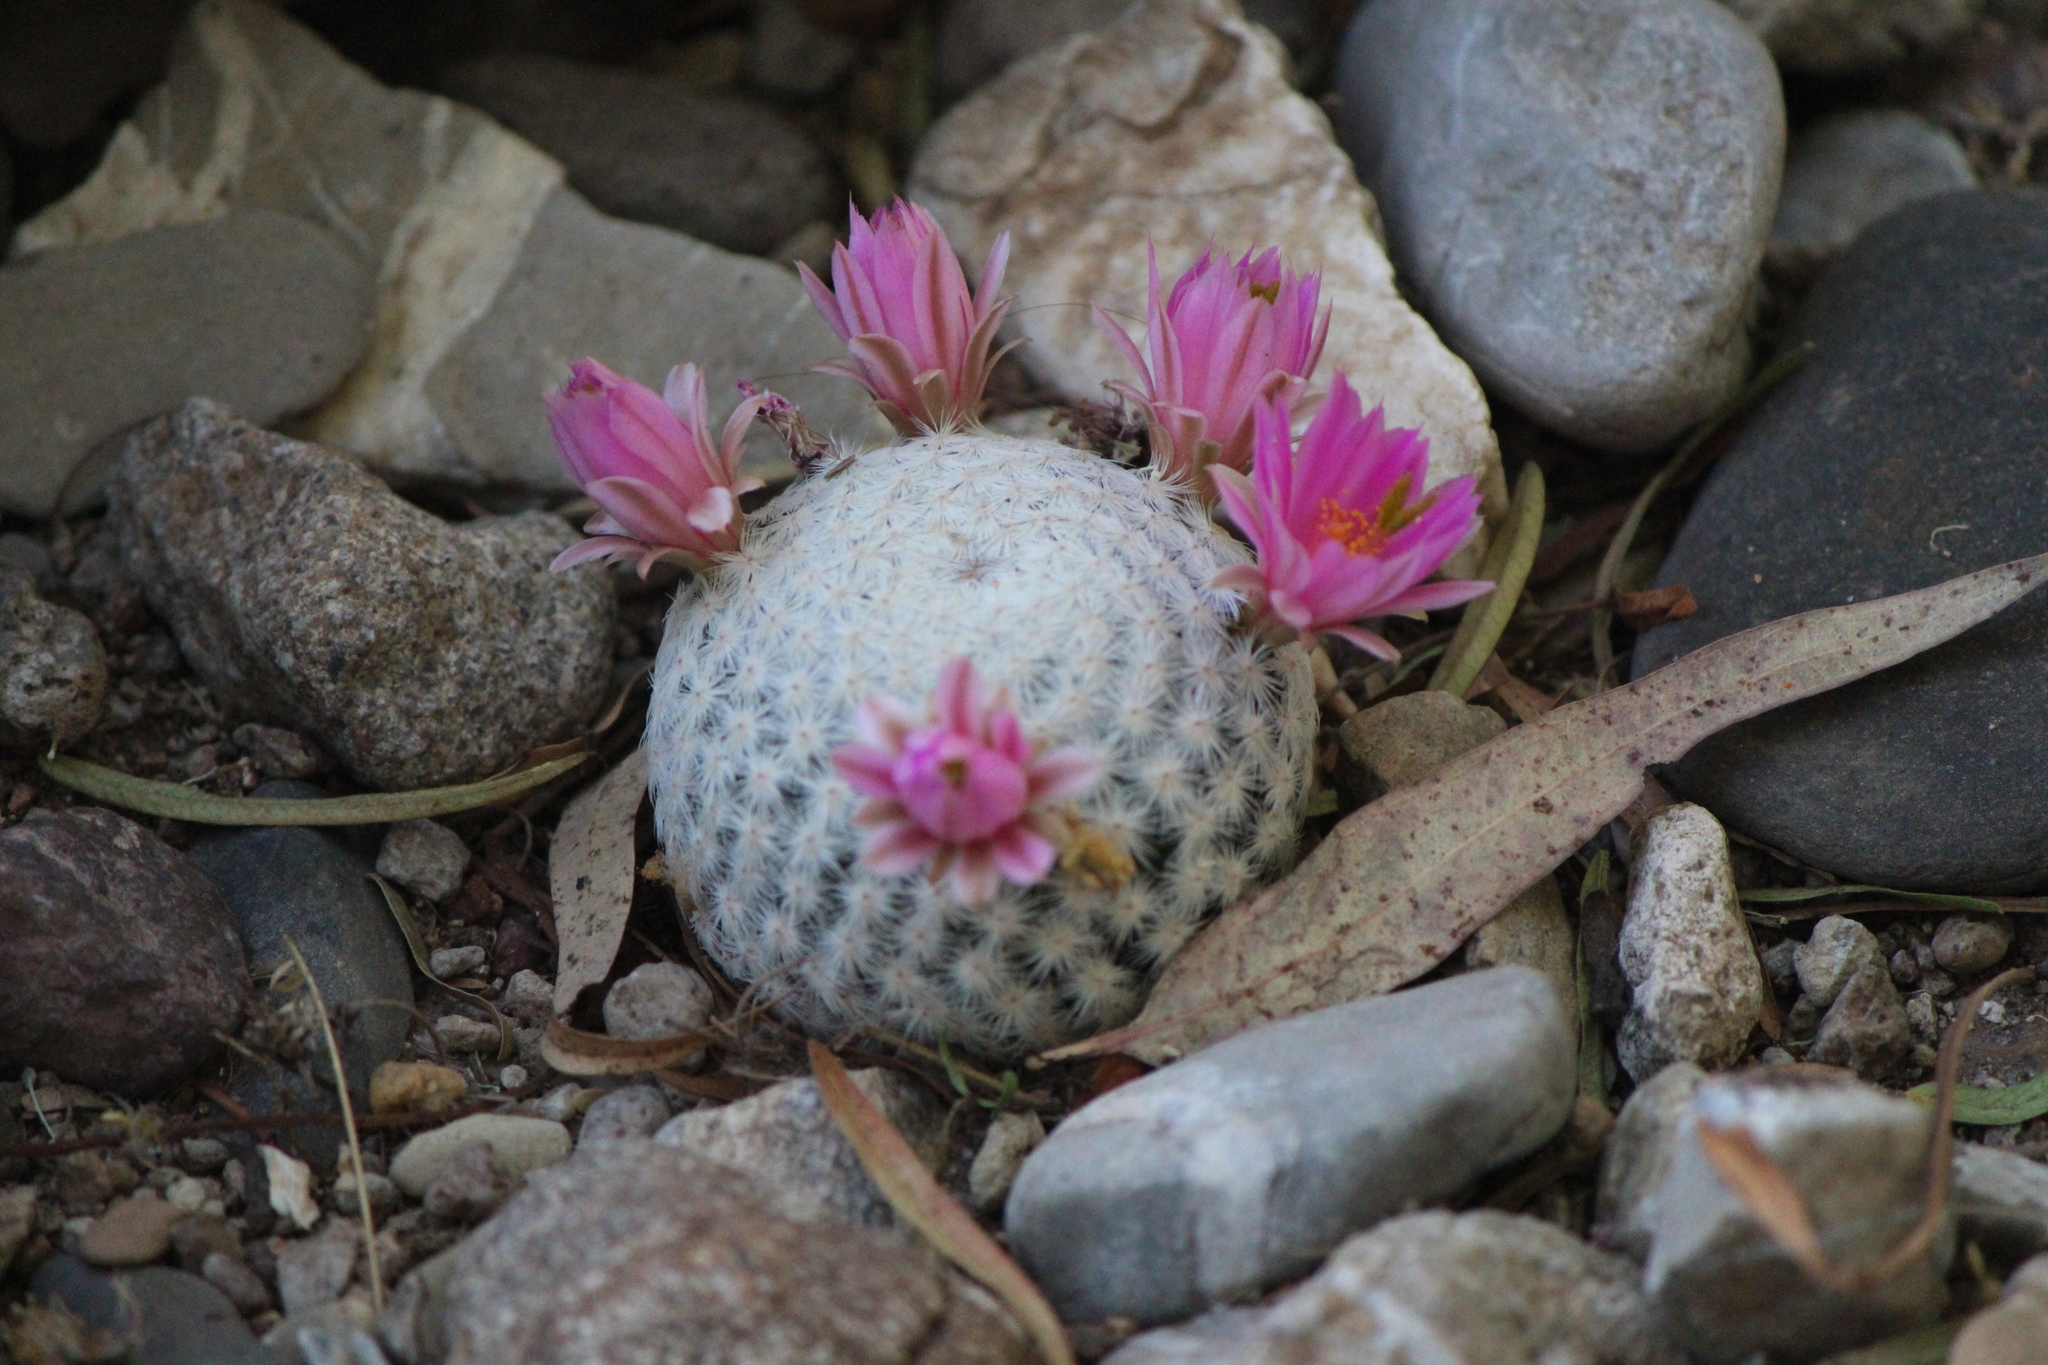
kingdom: Plantae
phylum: Tracheophyta
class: Magnoliopsida
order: Caryophyllales
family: Cactaceae
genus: Mammillaria
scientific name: Mammillaria herrerae
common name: Golf ball
